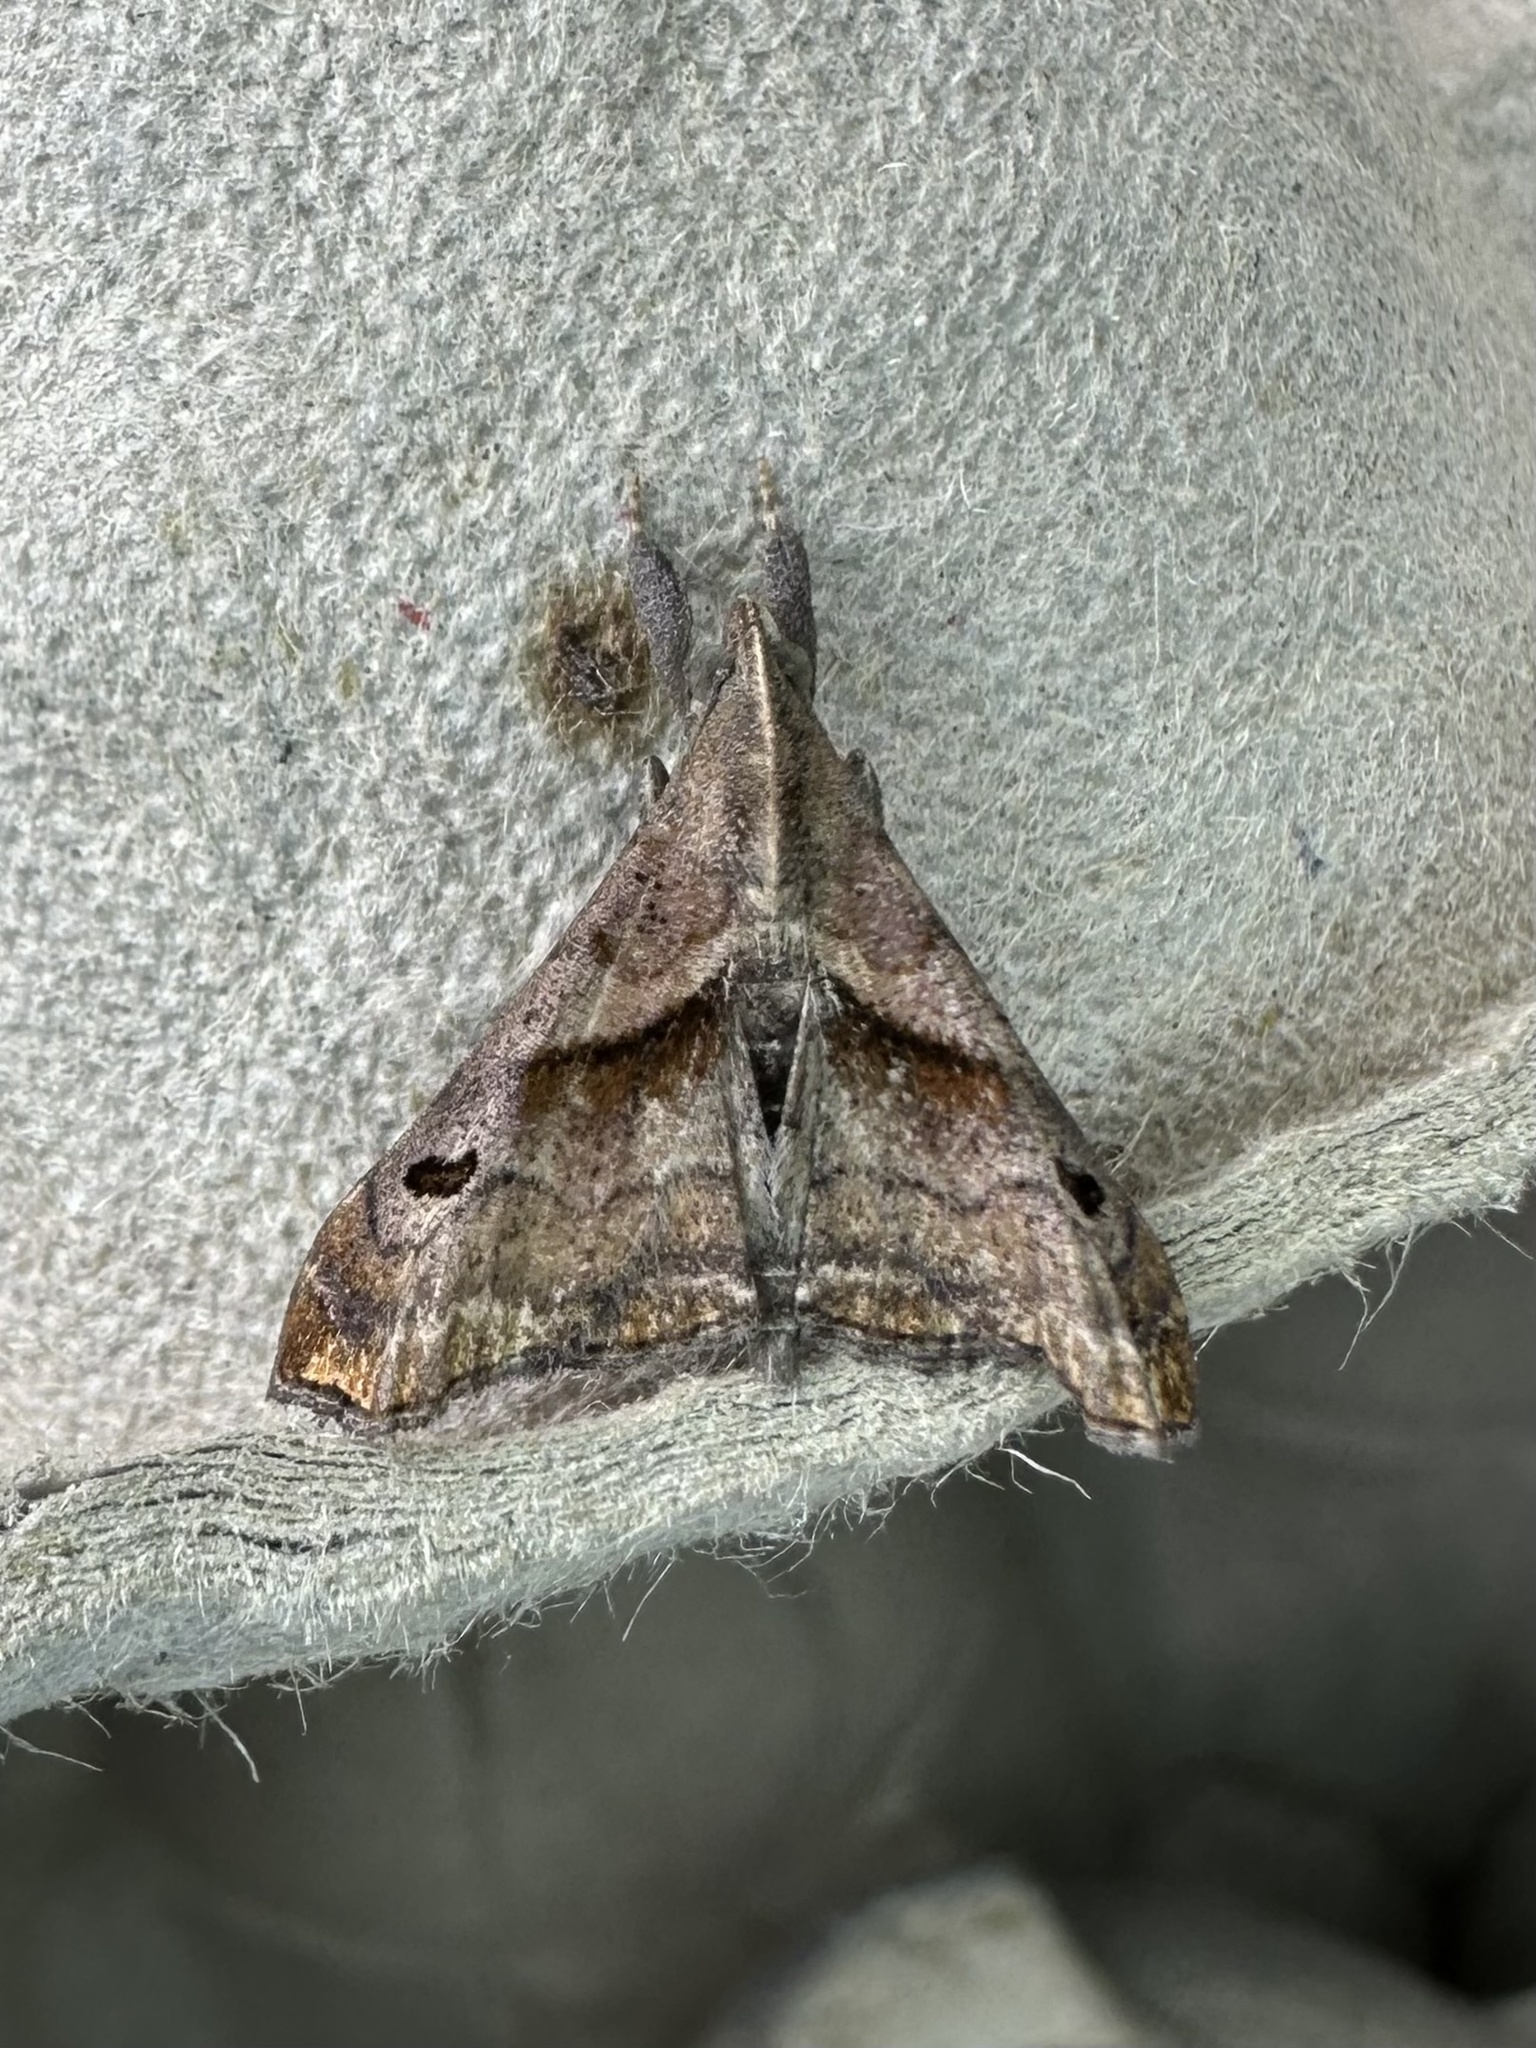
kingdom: Animalia
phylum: Arthropoda
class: Insecta
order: Lepidoptera
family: Erebidae
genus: Palthis
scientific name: Palthis angulalis
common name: Dark-spotted palthis moth
